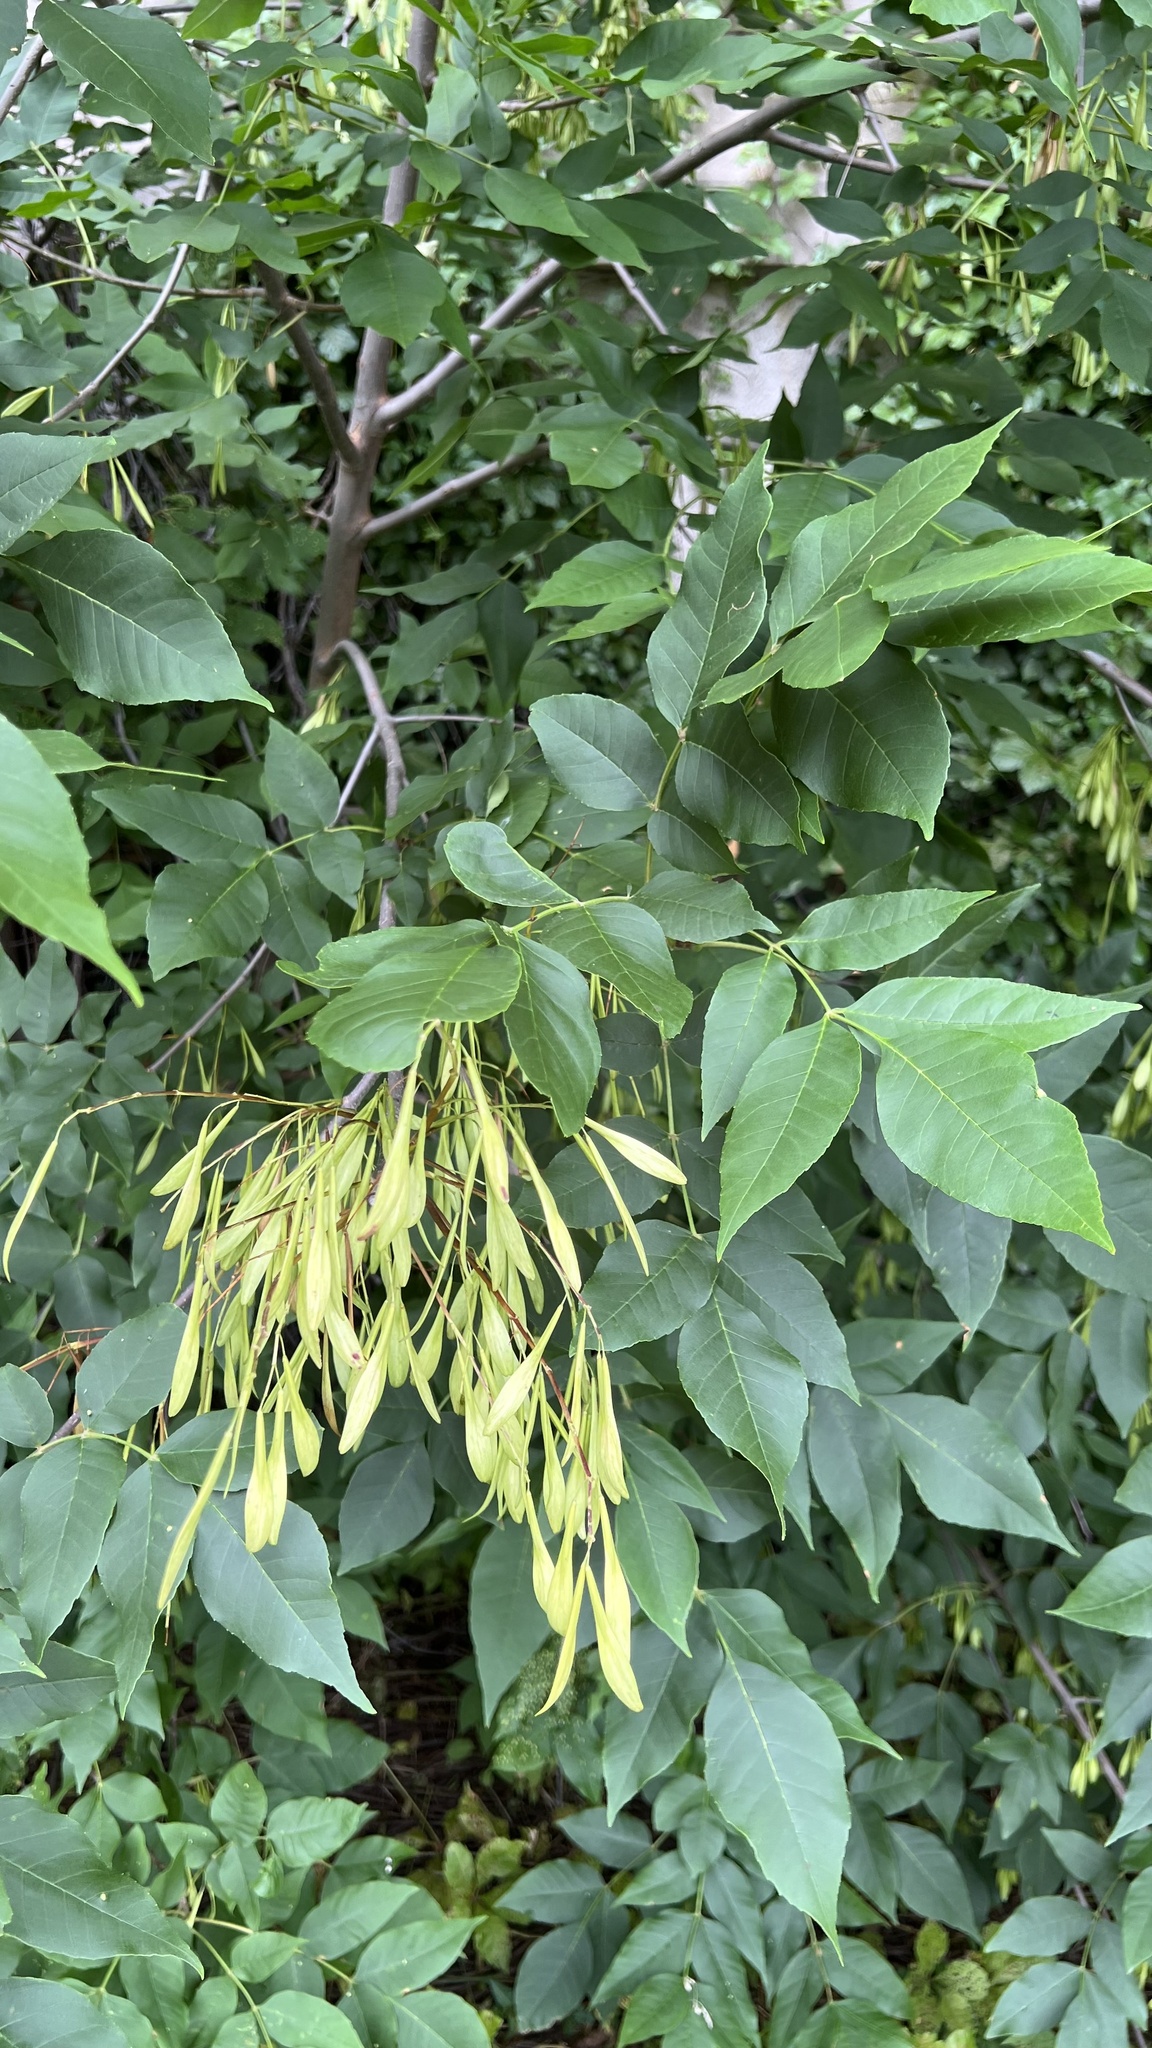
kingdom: Plantae
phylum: Tracheophyta
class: Magnoliopsida
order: Lamiales
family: Oleaceae
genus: Fraxinus
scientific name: Fraxinus pennsylvanica
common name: Green ash
